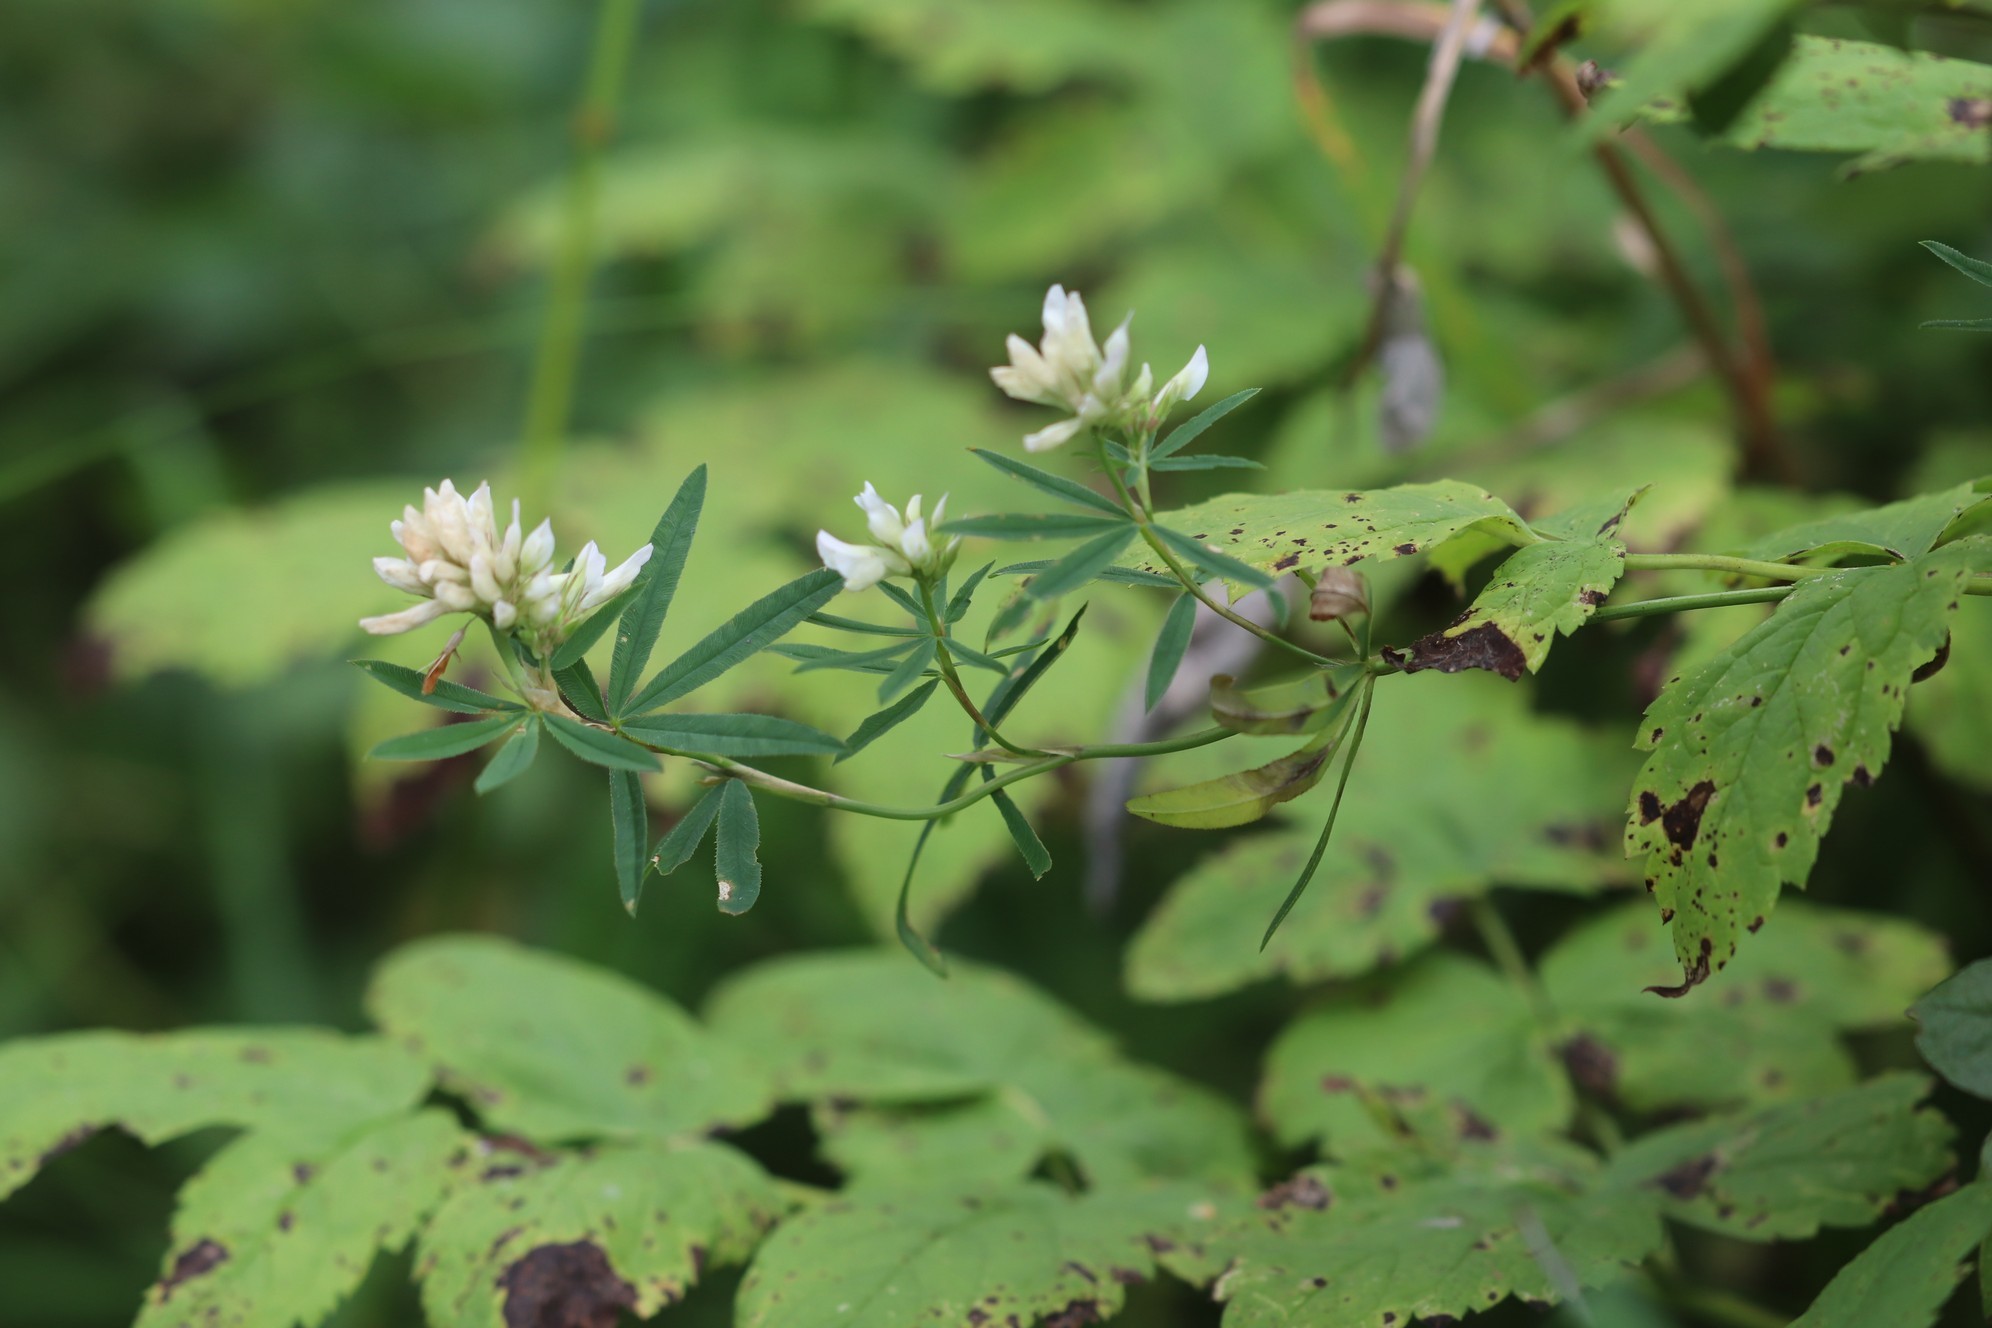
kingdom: Plantae
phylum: Tracheophyta
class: Magnoliopsida
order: Fabales
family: Fabaceae
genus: Trifolium
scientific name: Trifolium lupinaster
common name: Lupine clover
